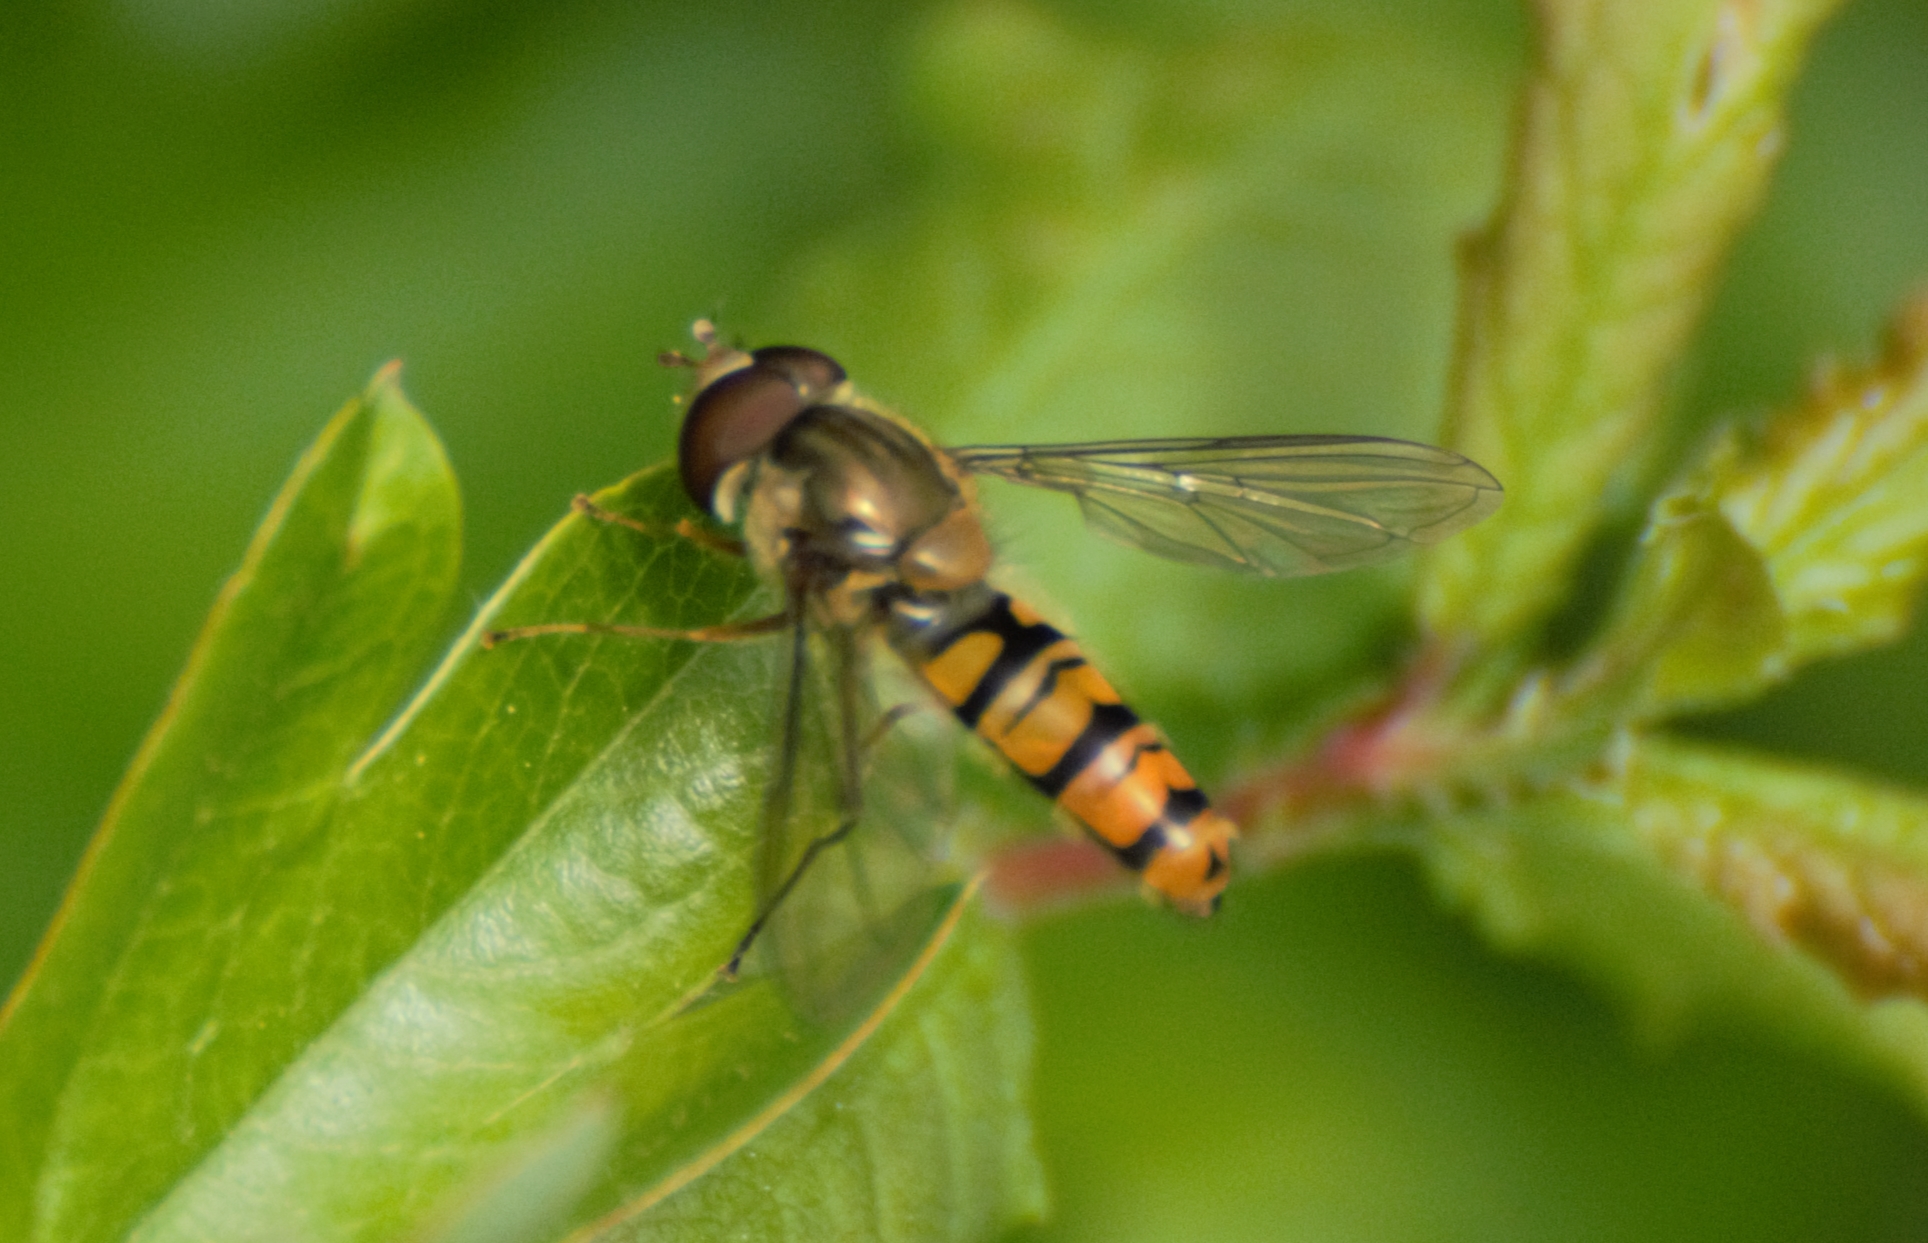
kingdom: Animalia
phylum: Arthropoda
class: Insecta
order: Diptera
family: Syrphidae
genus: Episyrphus
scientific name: Episyrphus balteatus
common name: Marmalade hoverfly
